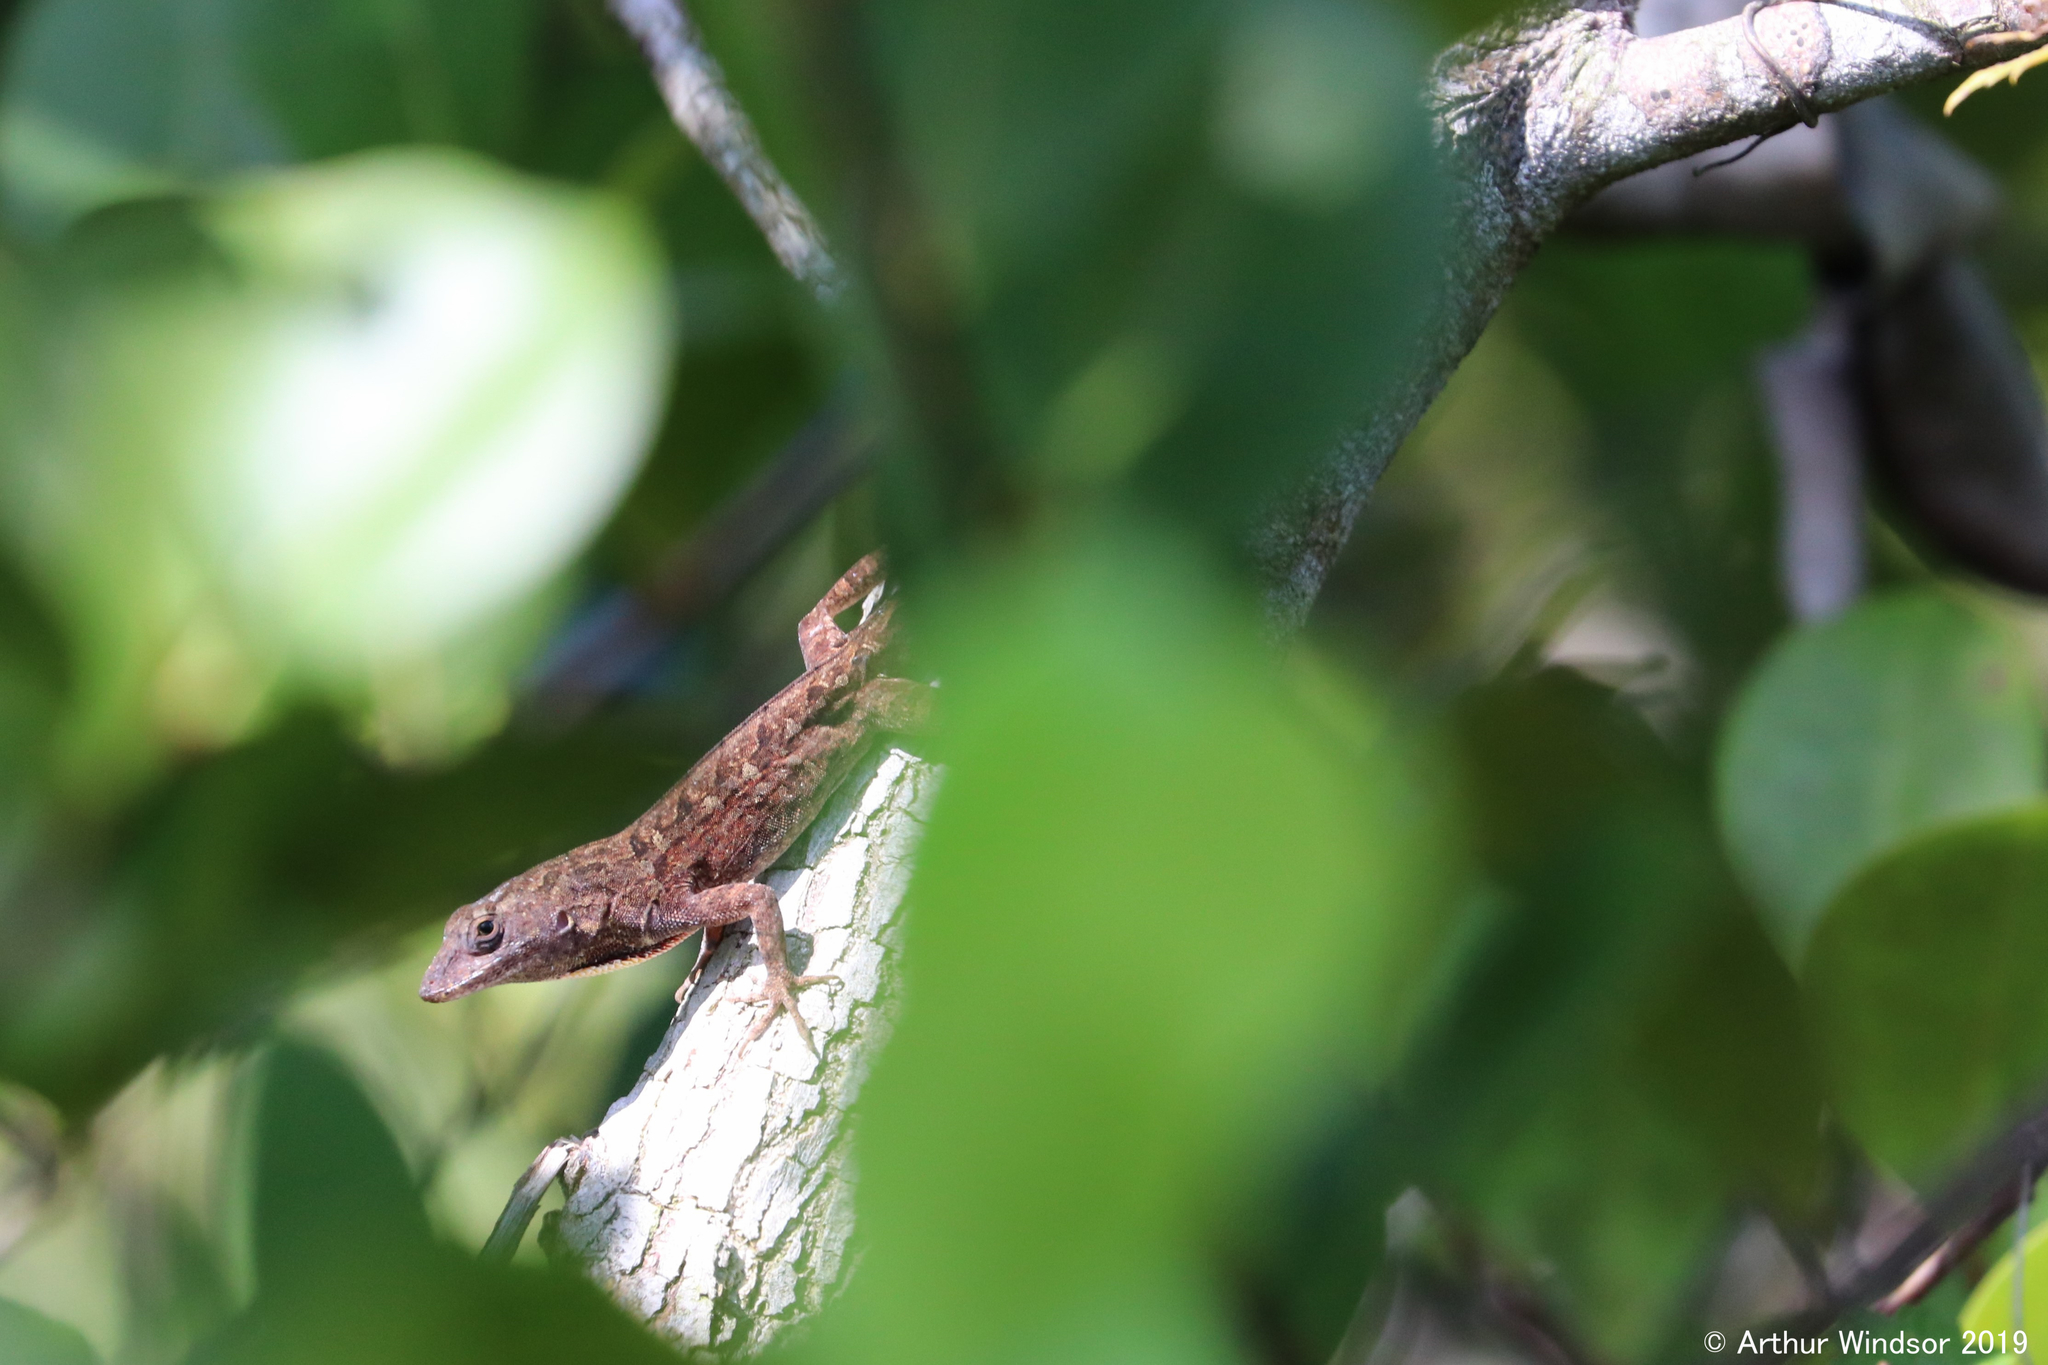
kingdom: Animalia
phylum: Chordata
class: Squamata
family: Dactyloidae
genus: Anolis
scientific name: Anolis sagrei
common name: Brown anole
